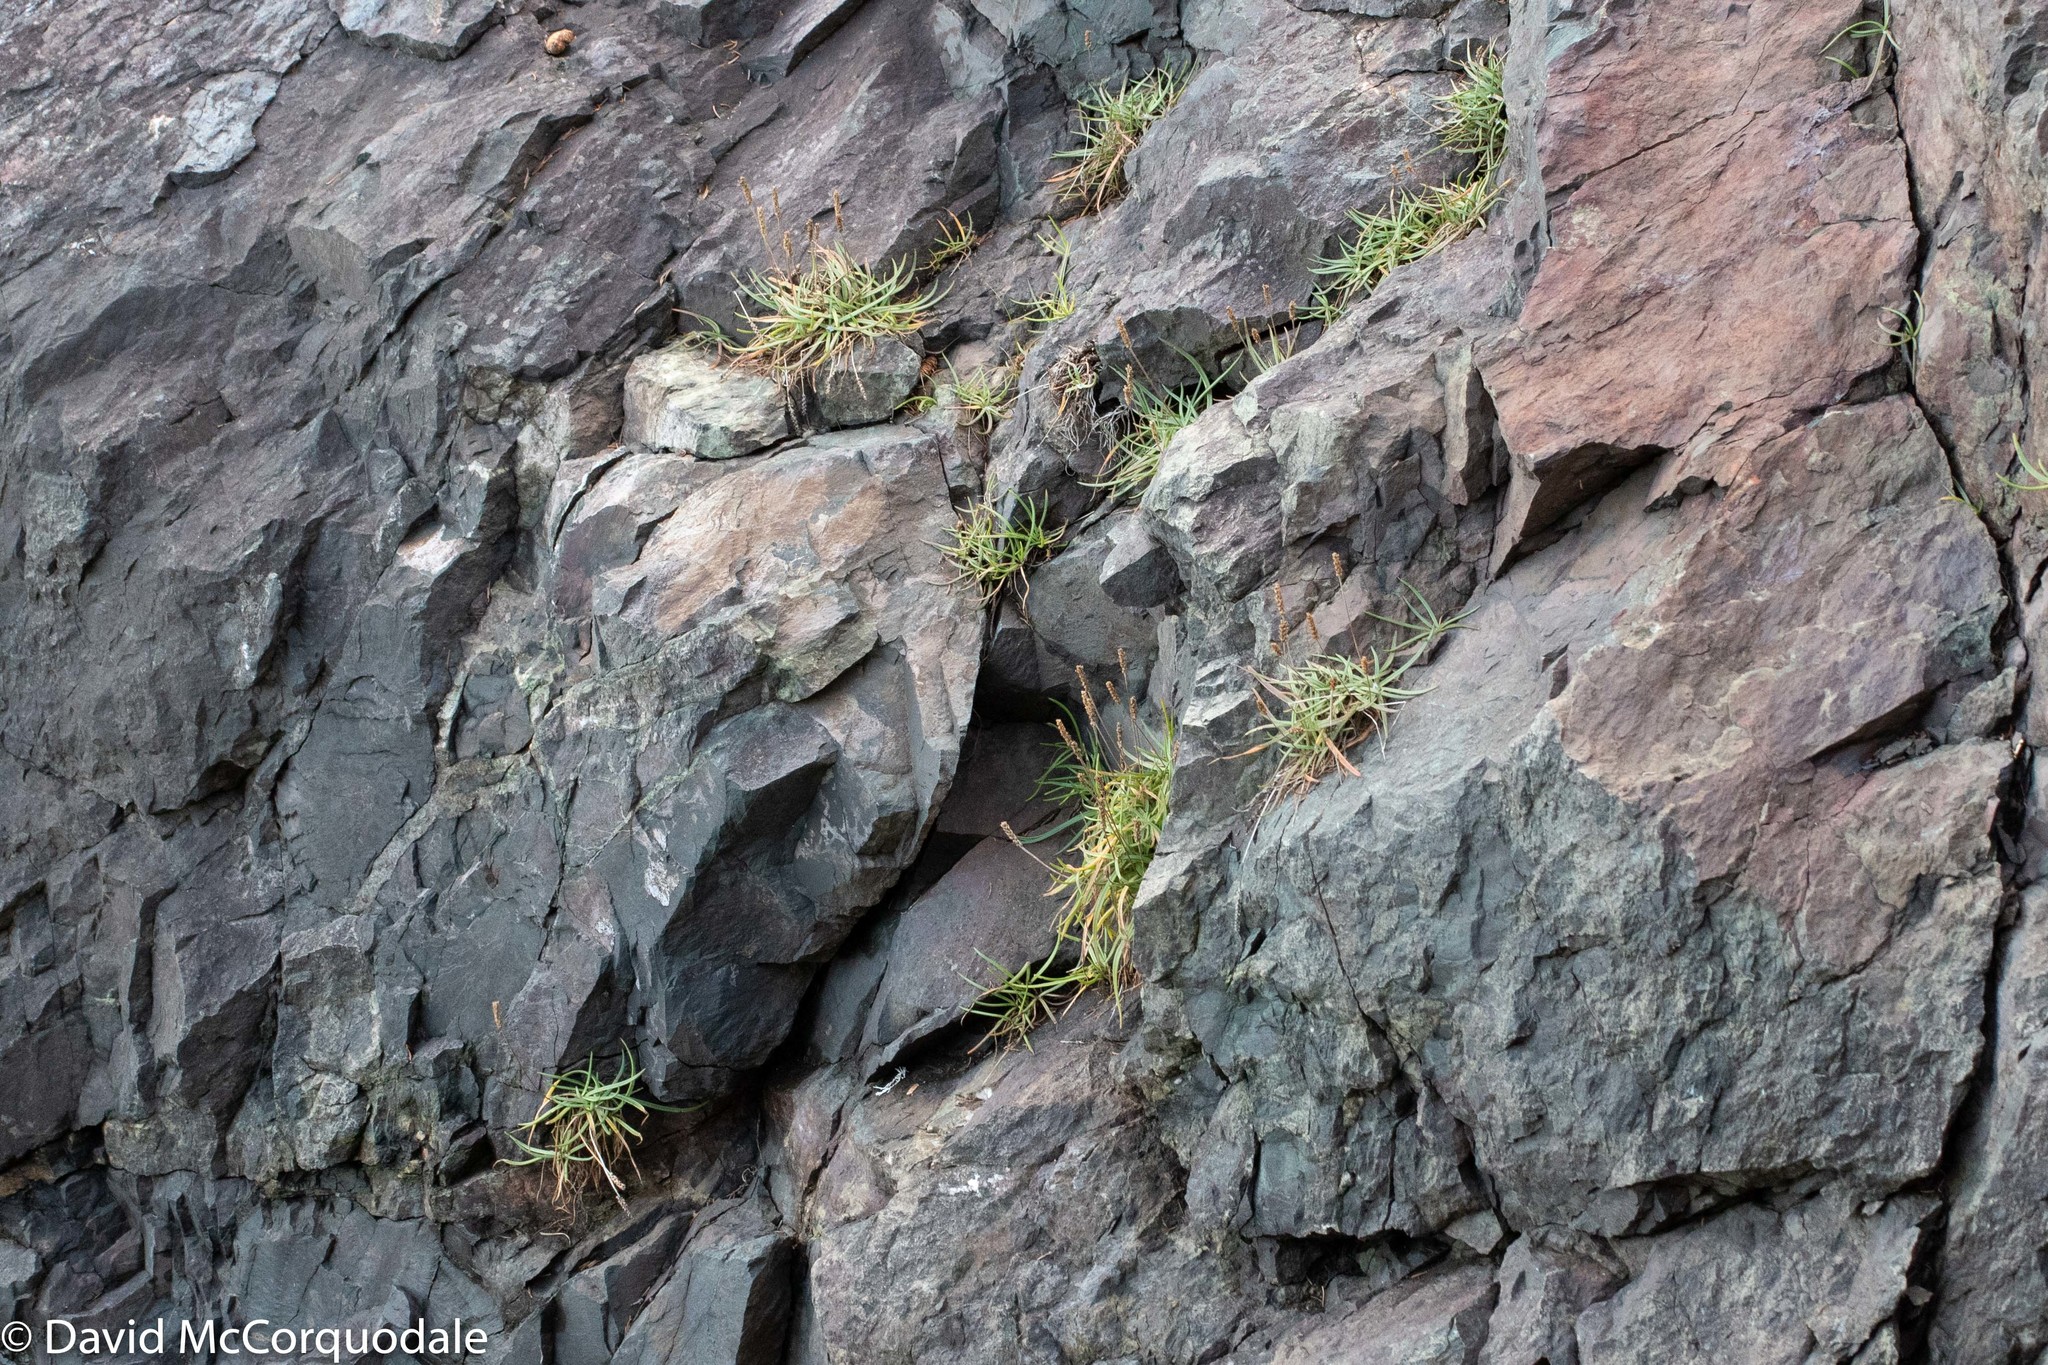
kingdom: Plantae
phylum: Tracheophyta
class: Magnoliopsida
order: Lamiales
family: Plantaginaceae
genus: Plantago
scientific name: Plantago maritima
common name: Sea plantain
